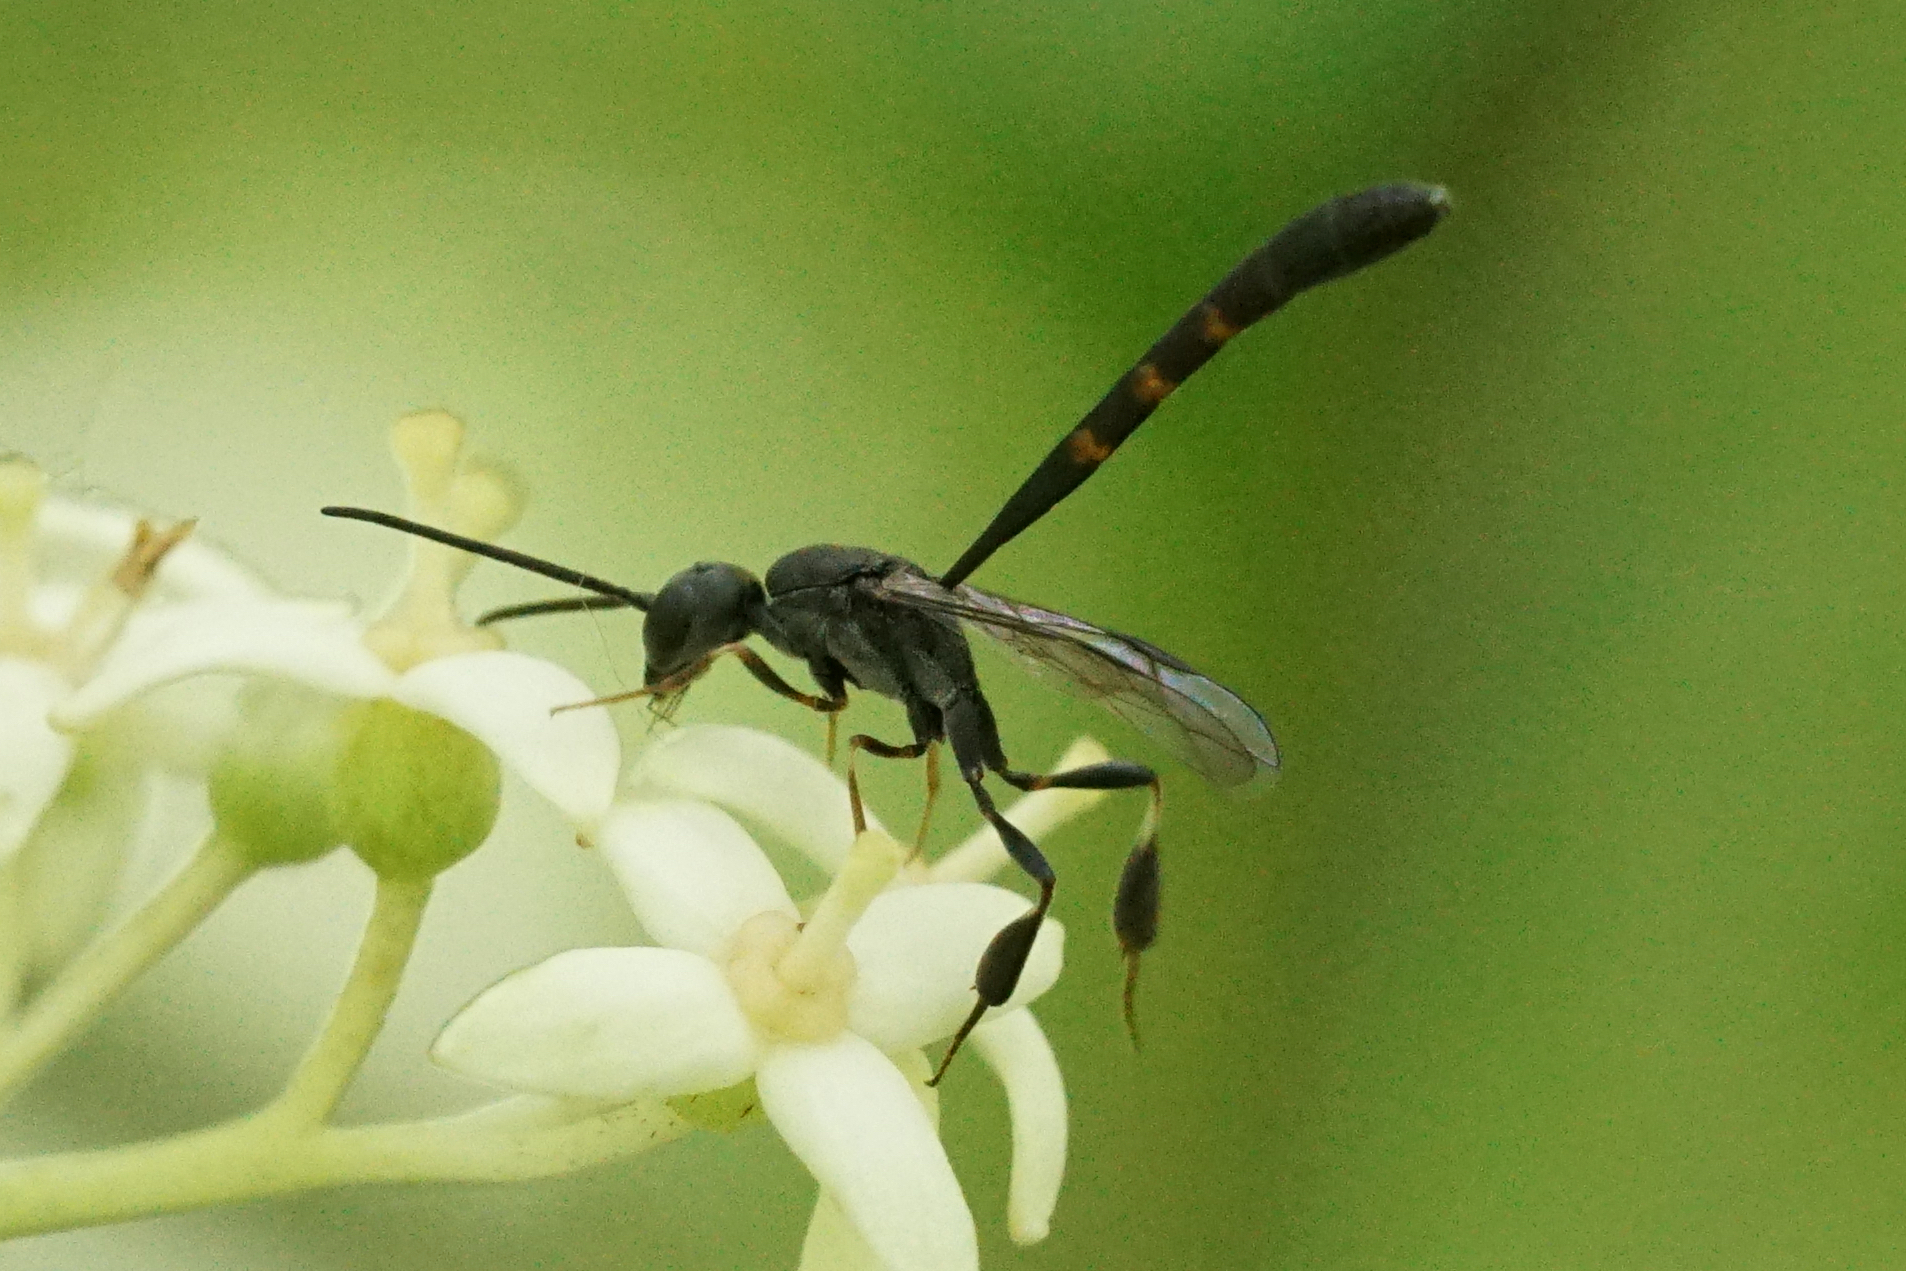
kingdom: Animalia
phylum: Arthropoda
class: Insecta
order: Hymenoptera
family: Gasteruptiidae
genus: Gasteruption
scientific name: Gasteruption
